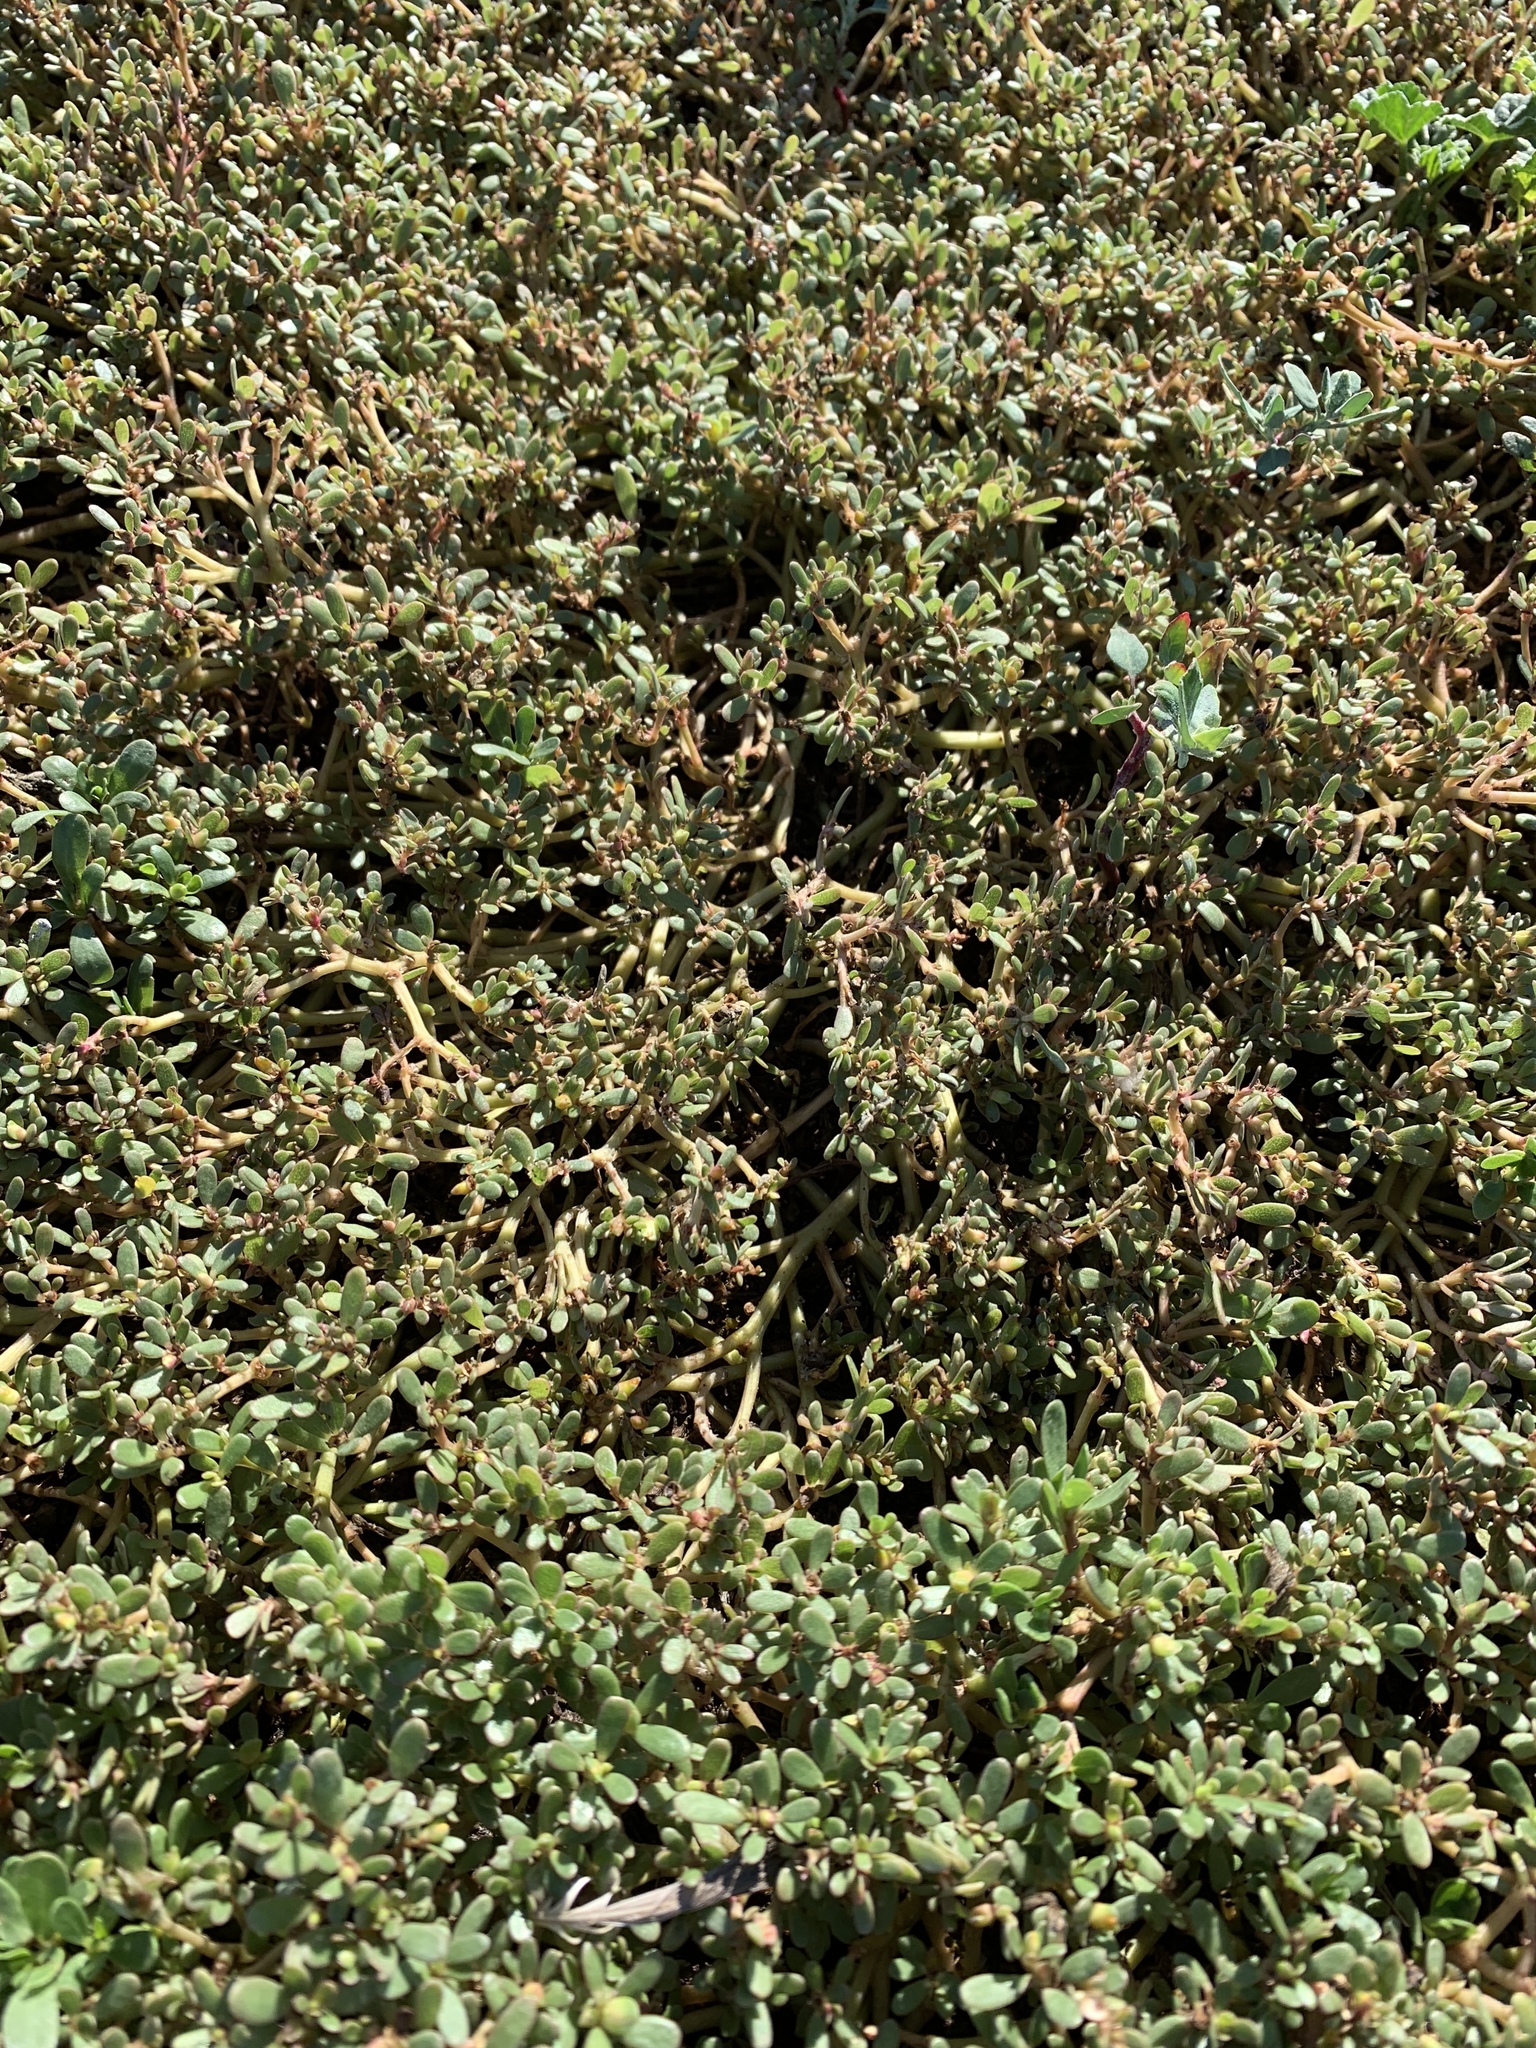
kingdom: Plantae
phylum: Tracheophyta
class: Magnoliopsida
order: Caryophyllales
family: Portulacaceae
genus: Portulaca
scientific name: Portulaca oleracea
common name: Common purslane
